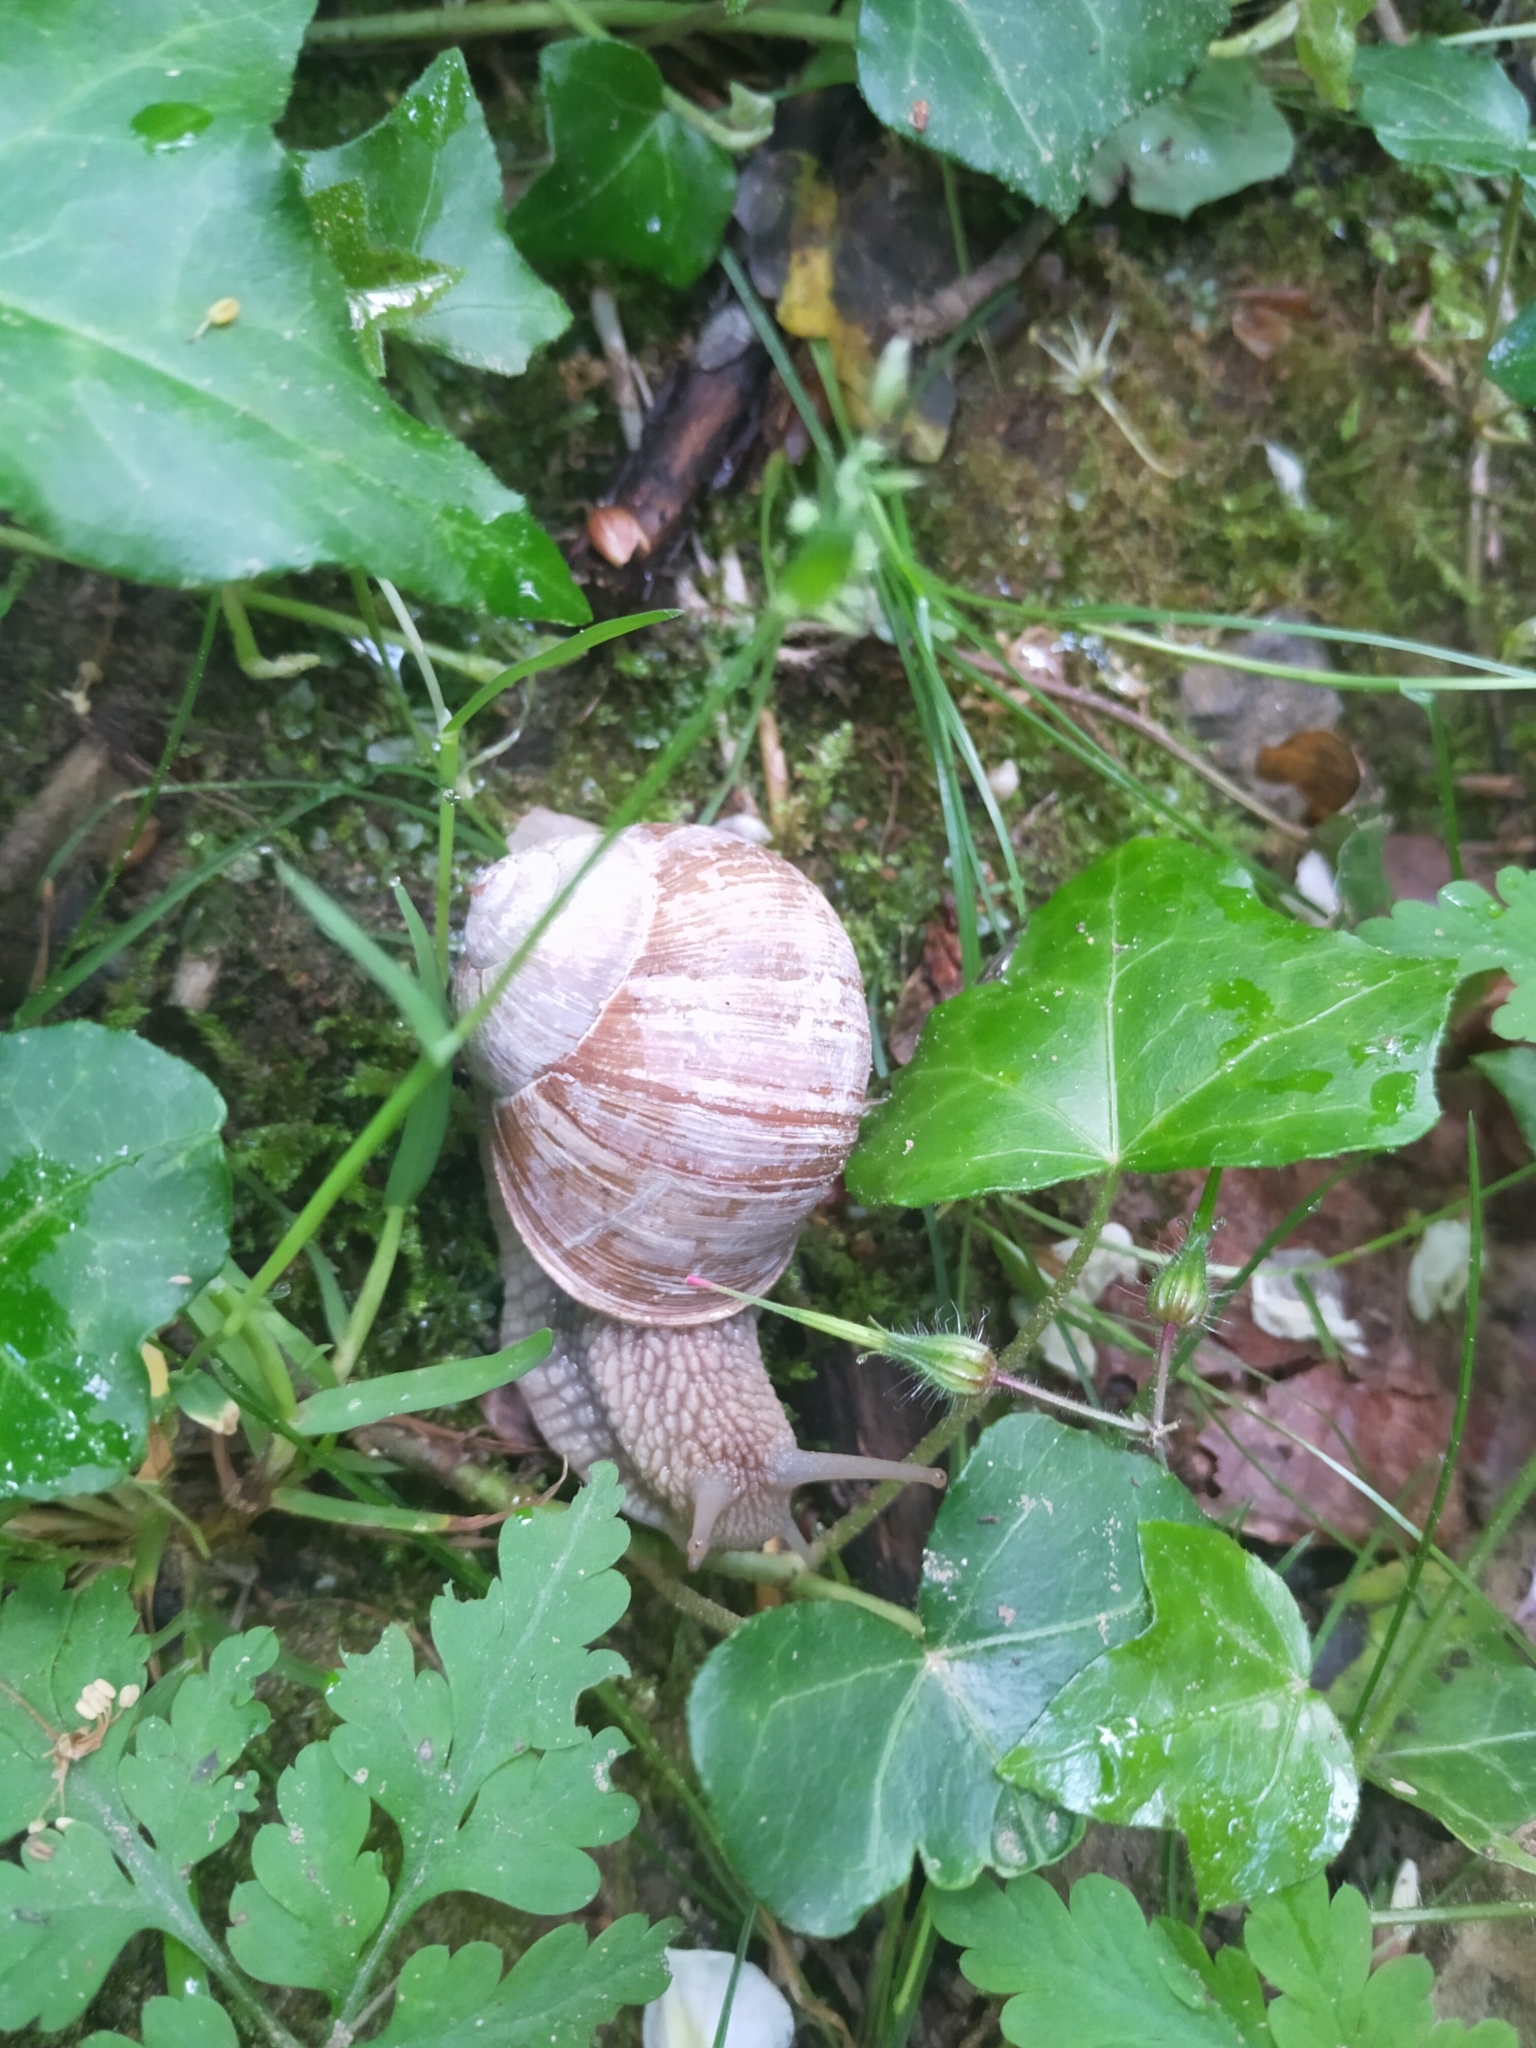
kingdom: Animalia
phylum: Mollusca
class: Gastropoda
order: Stylommatophora
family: Helicidae
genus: Helix
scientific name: Helix pomatia
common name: Roman snail
